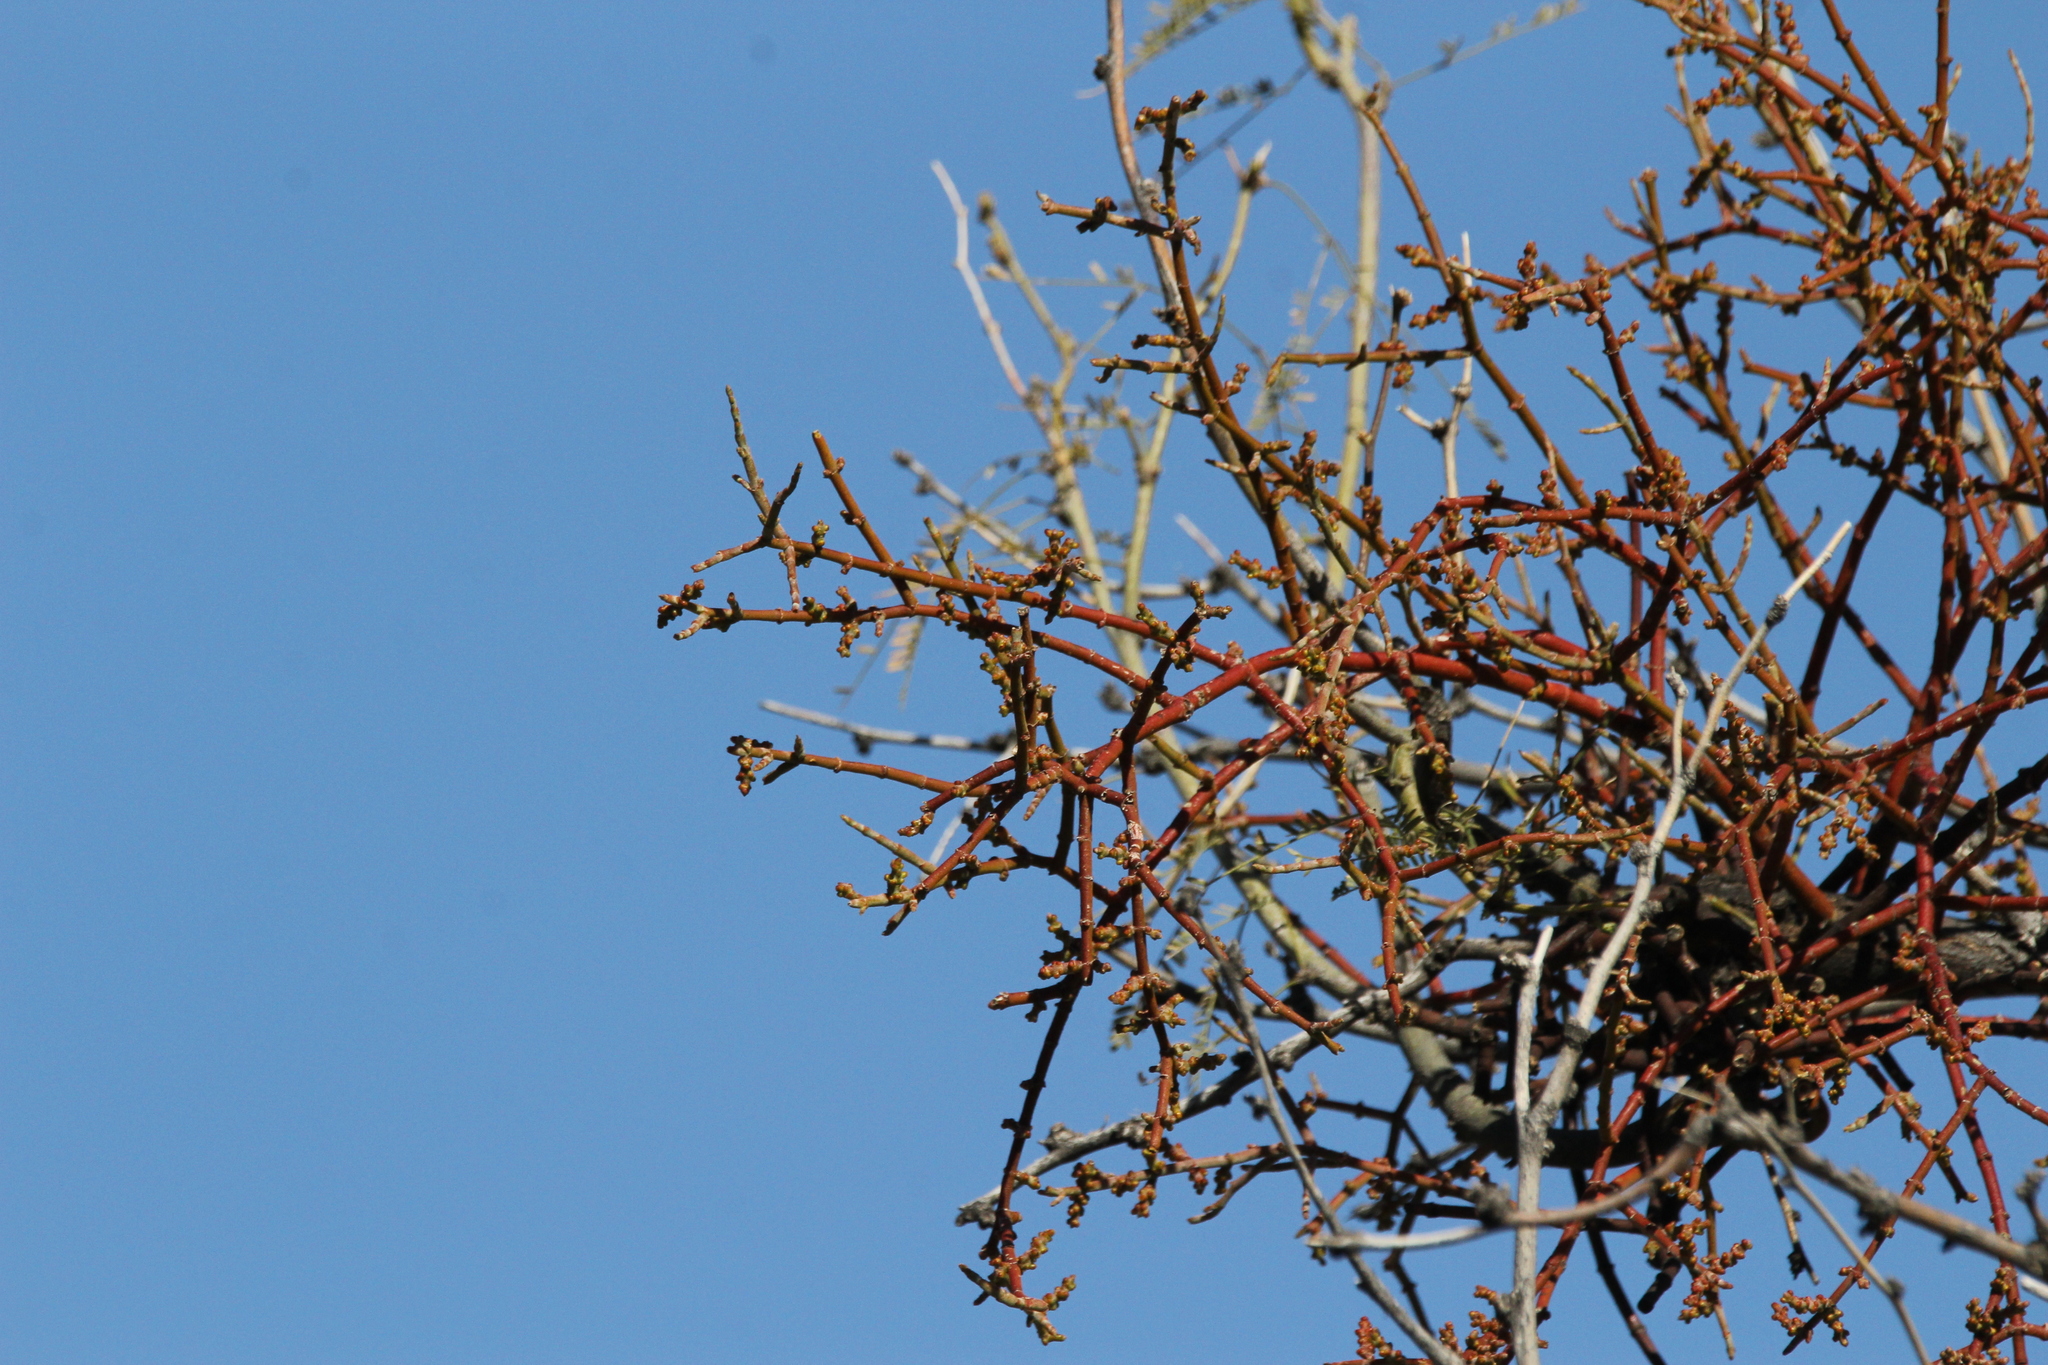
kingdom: Plantae
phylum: Tracheophyta
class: Magnoliopsida
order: Santalales
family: Viscaceae
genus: Phoradendron
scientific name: Phoradendron californicum
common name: Acacia mistletoe
